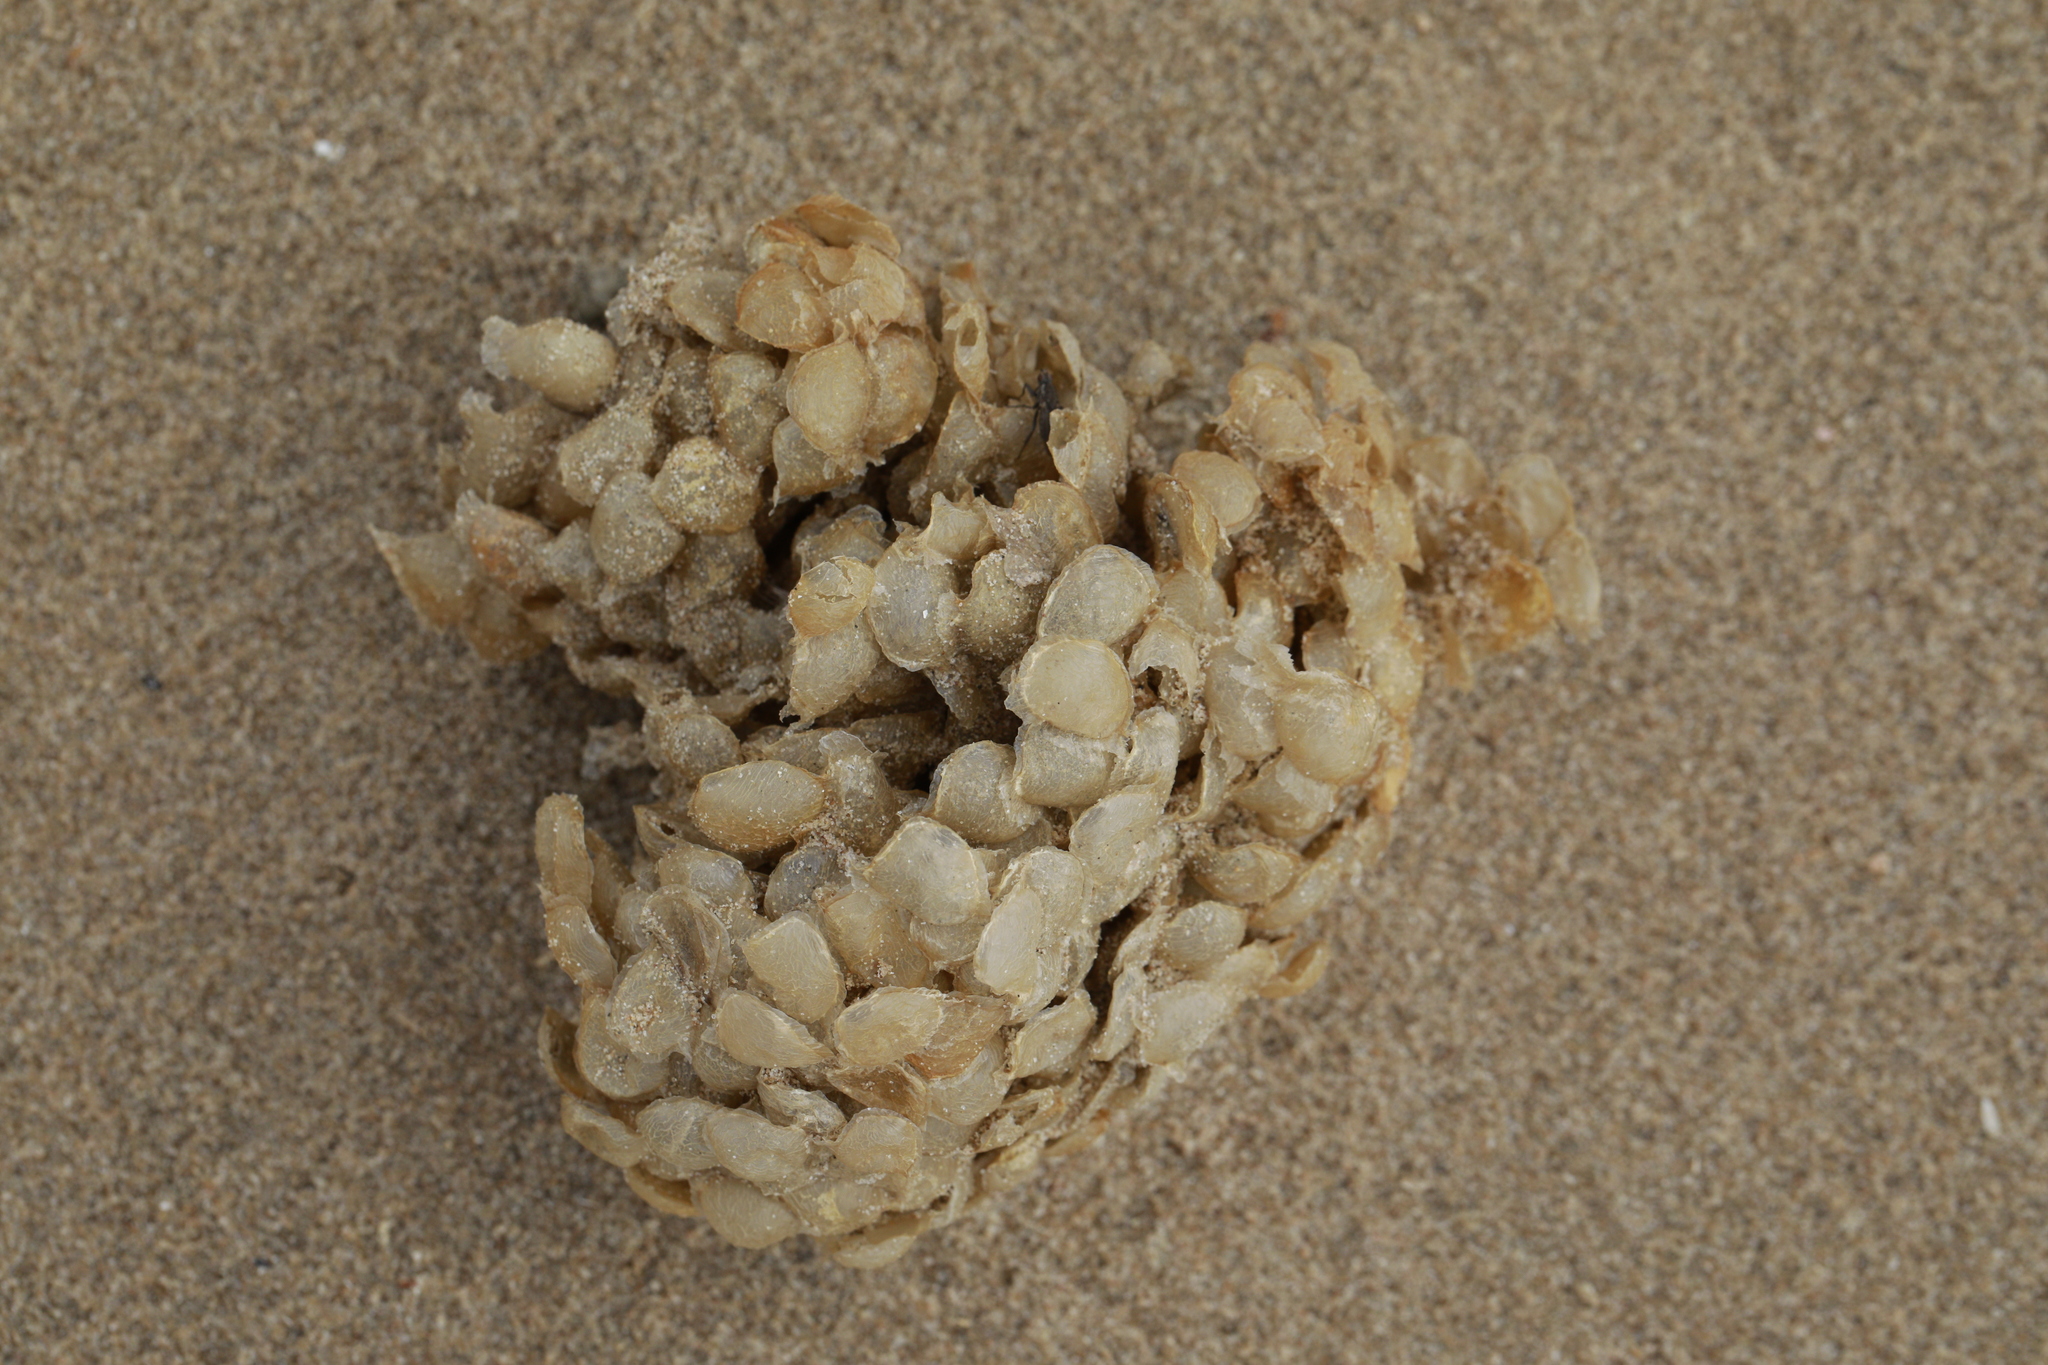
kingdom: Animalia
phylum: Mollusca
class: Gastropoda
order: Neogastropoda
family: Buccinidae
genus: Buccinum
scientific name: Buccinum undatum
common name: Common whelk
